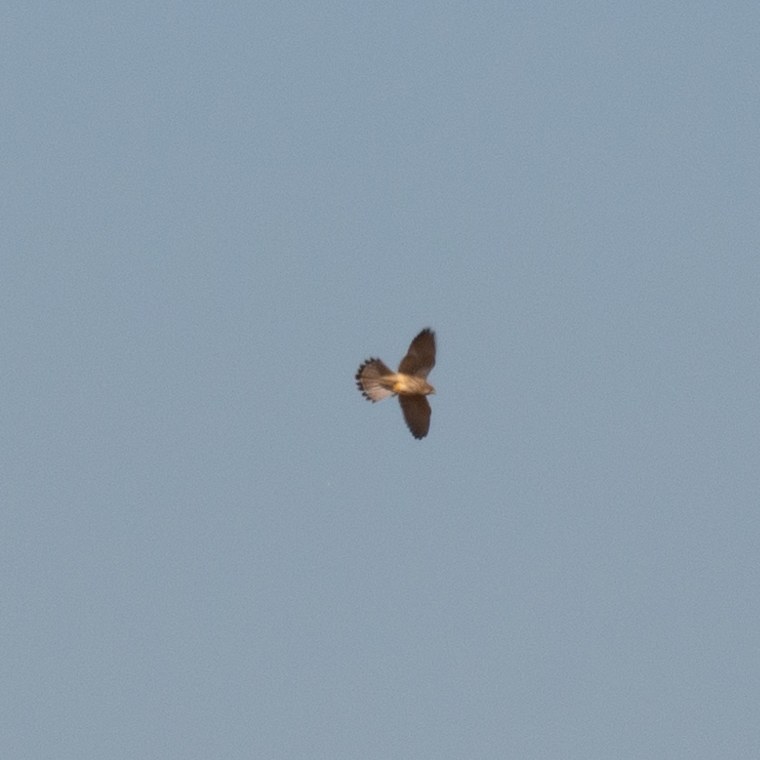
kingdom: Animalia
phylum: Chordata
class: Aves
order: Falconiformes
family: Falconidae
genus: Falco
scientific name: Falco tinnunculus
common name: Common kestrel
